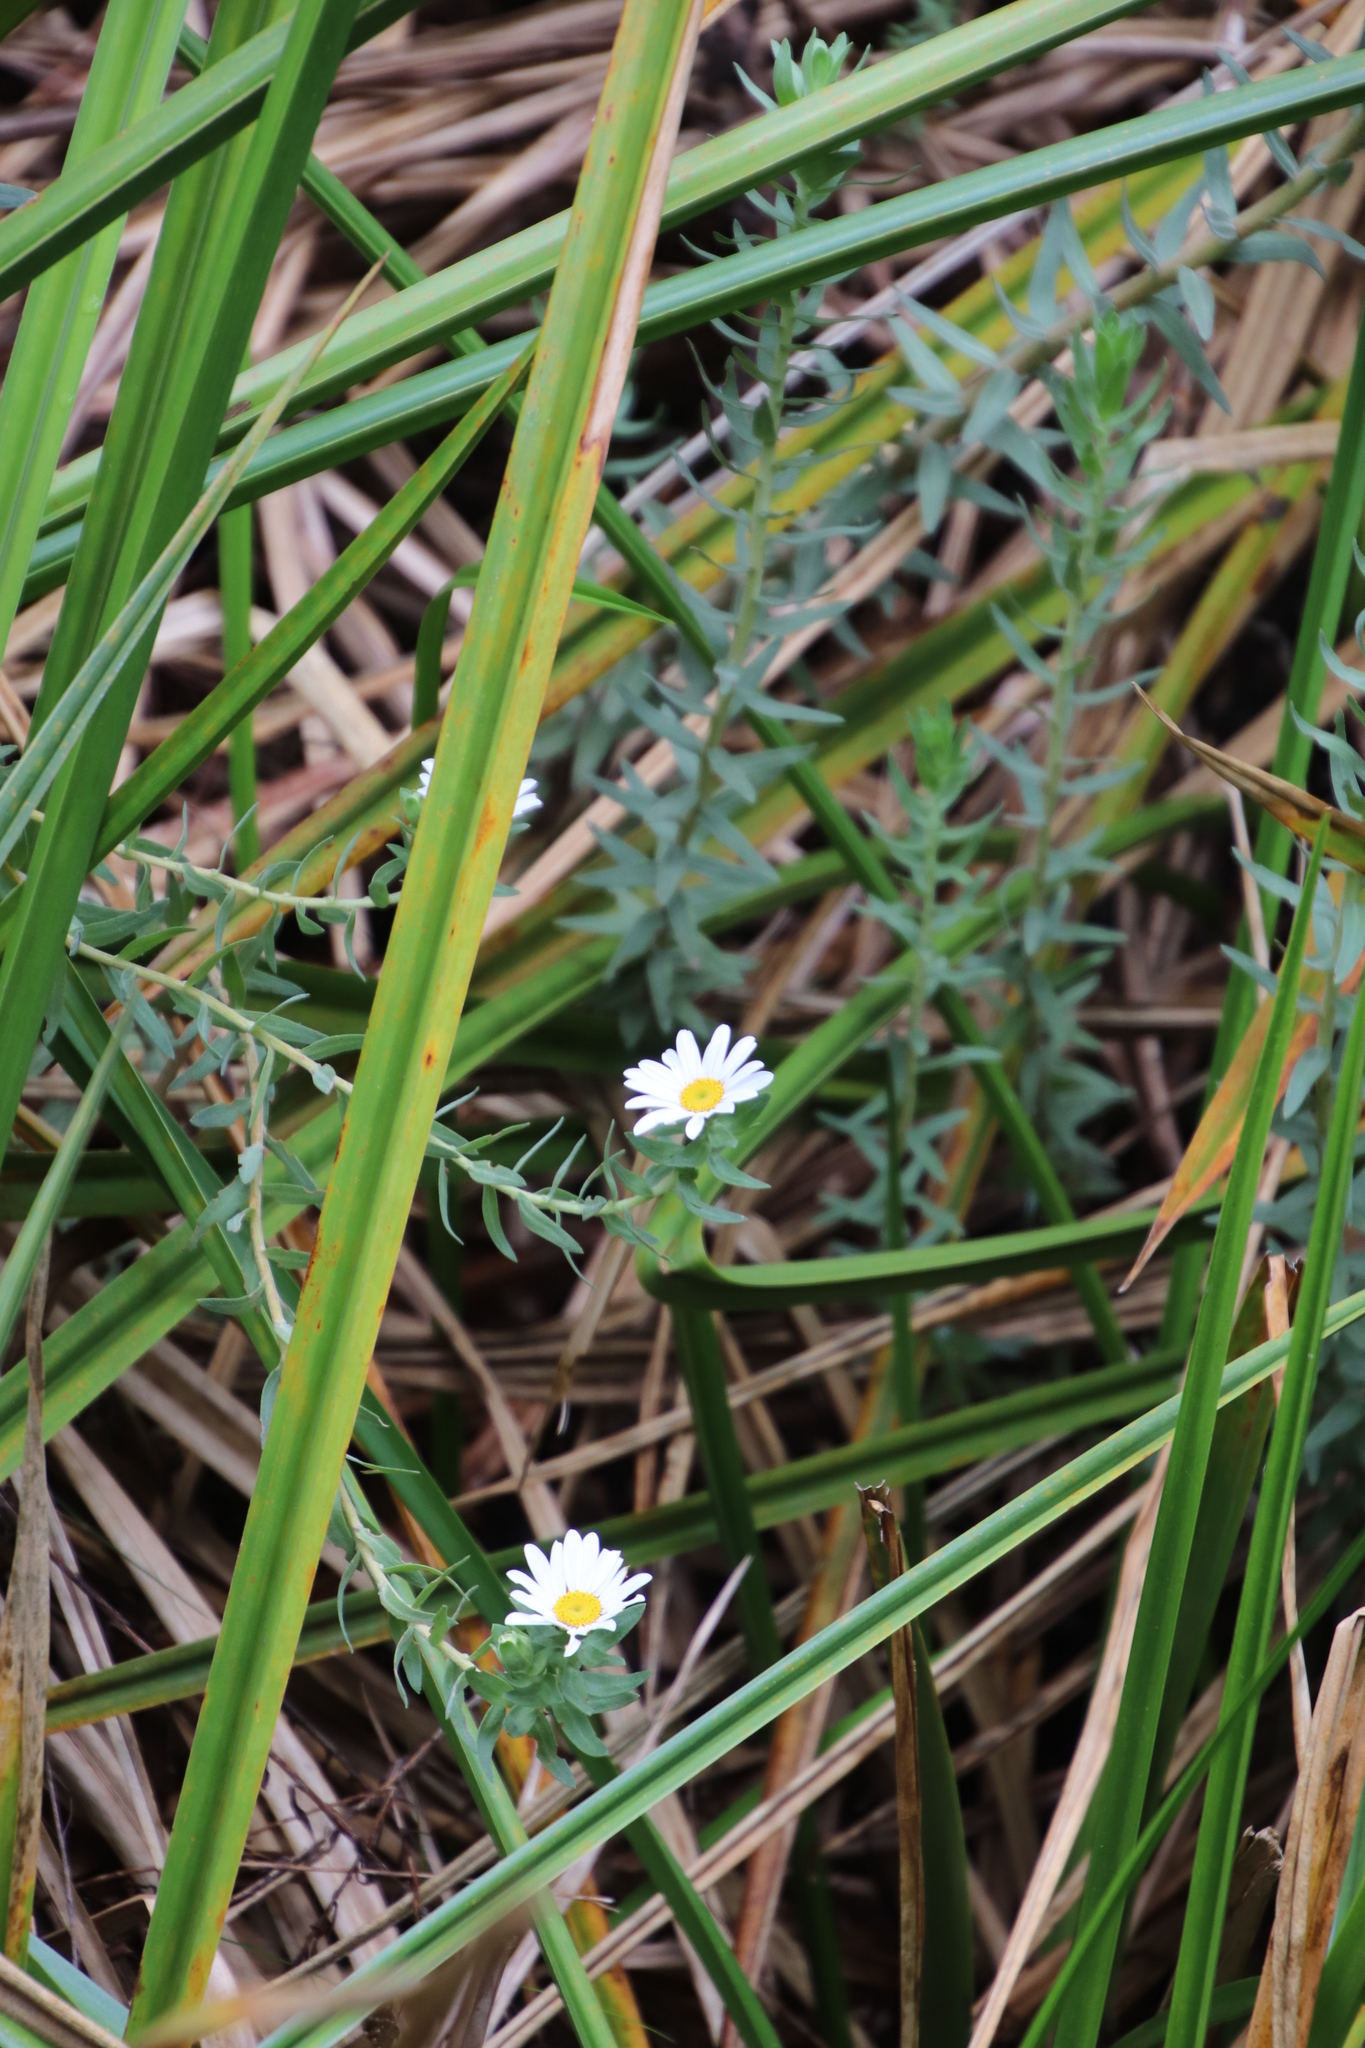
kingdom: Plantae
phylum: Tracheophyta
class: Magnoliopsida
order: Asterales
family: Asteraceae
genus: Osmitopsis
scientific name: Osmitopsis asteriscoides
